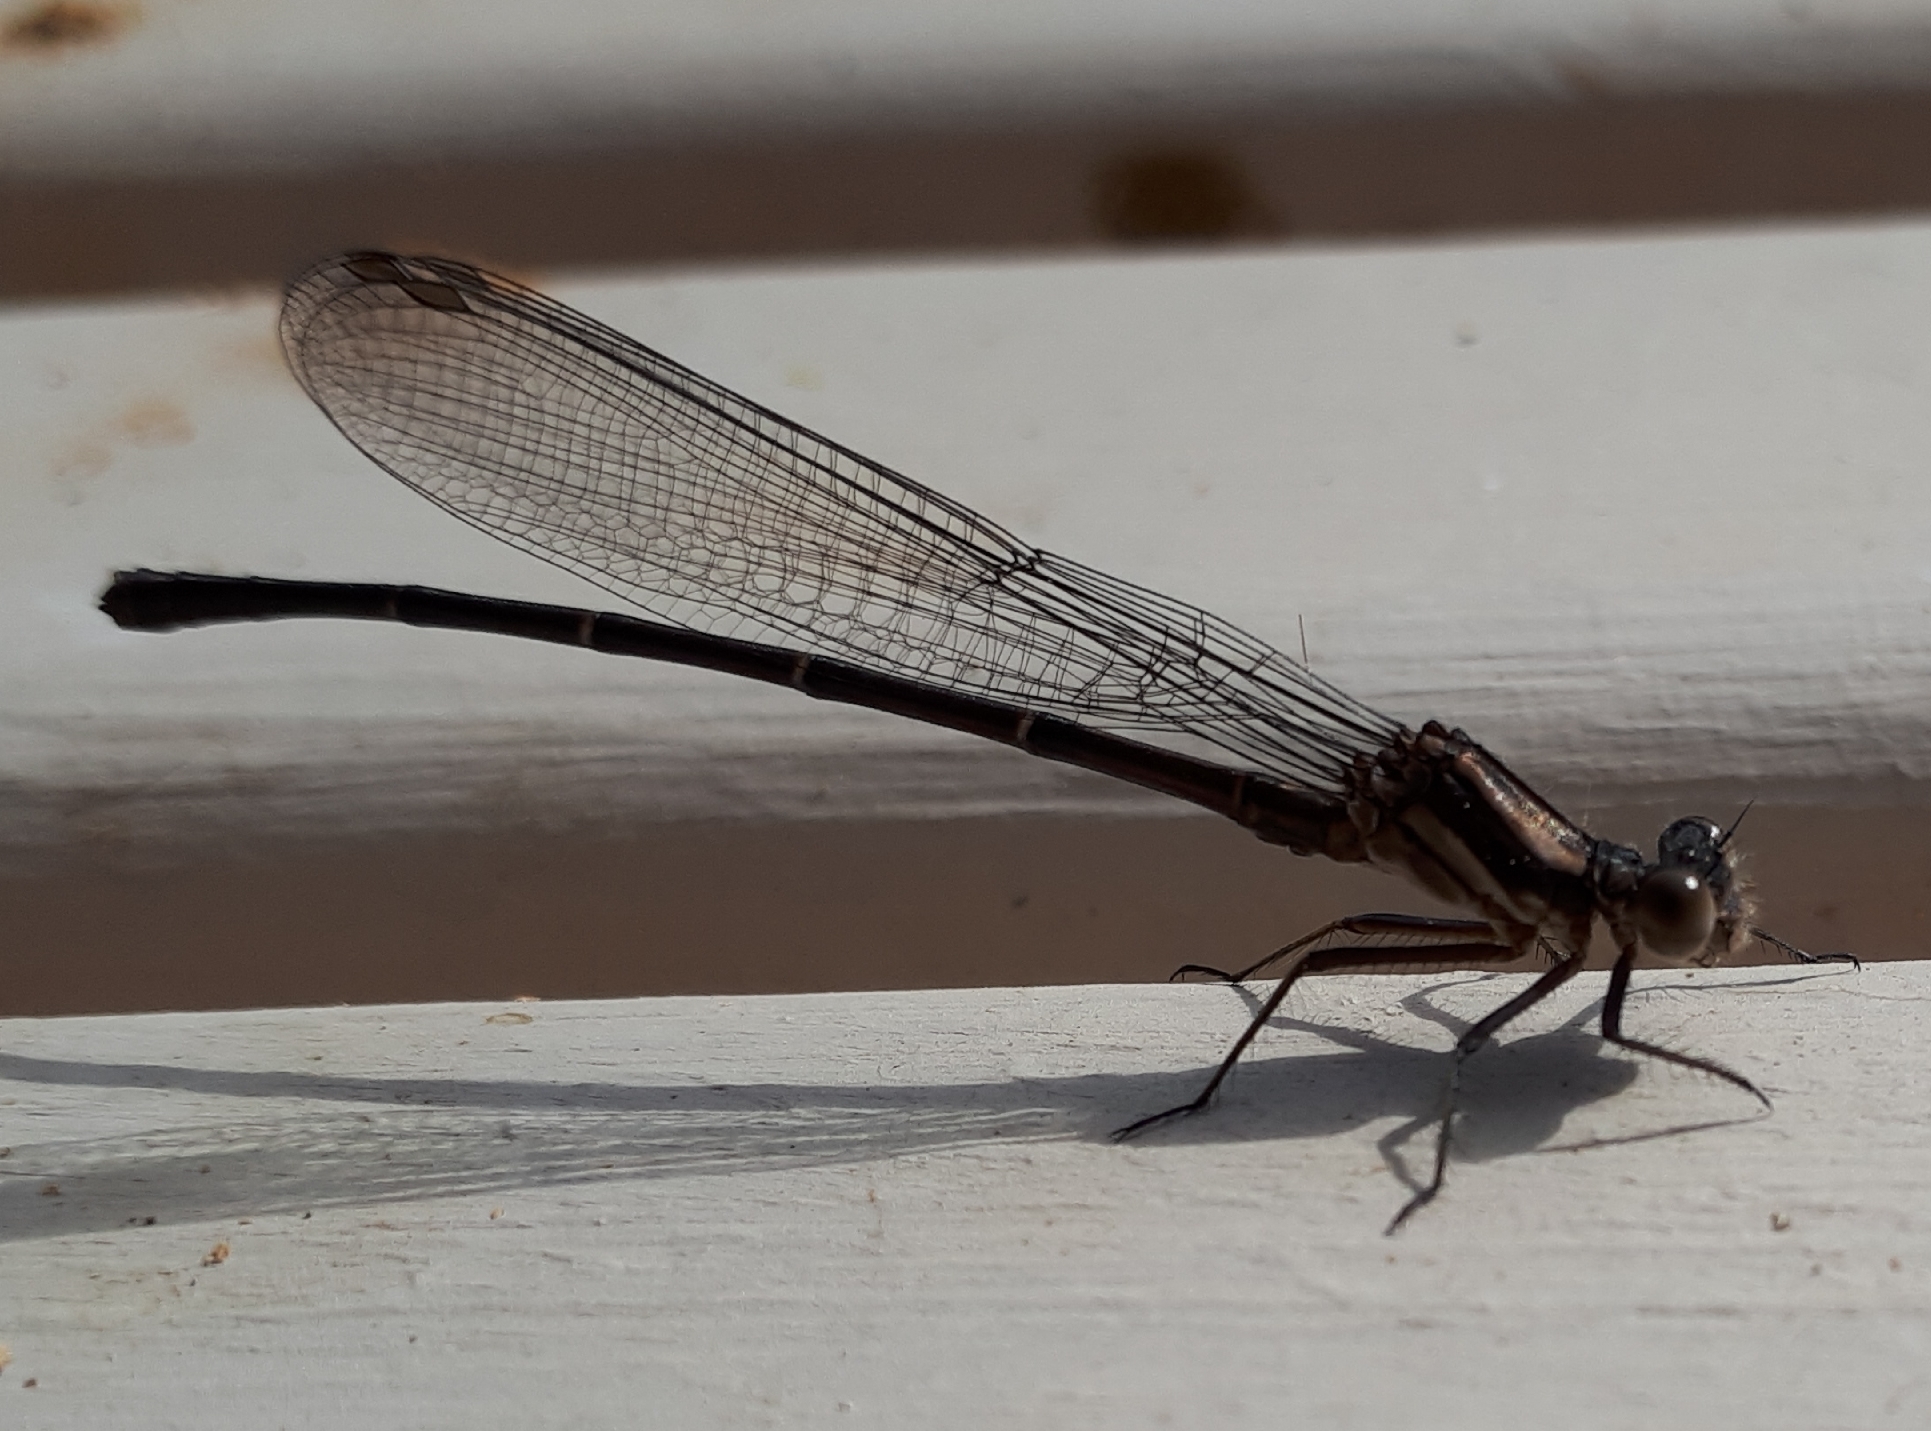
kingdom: Animalia
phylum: Arthropoda
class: Insecta
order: Odonata
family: Coenagrionidae
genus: Argia
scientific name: Argia moesta
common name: Powdered dancer
